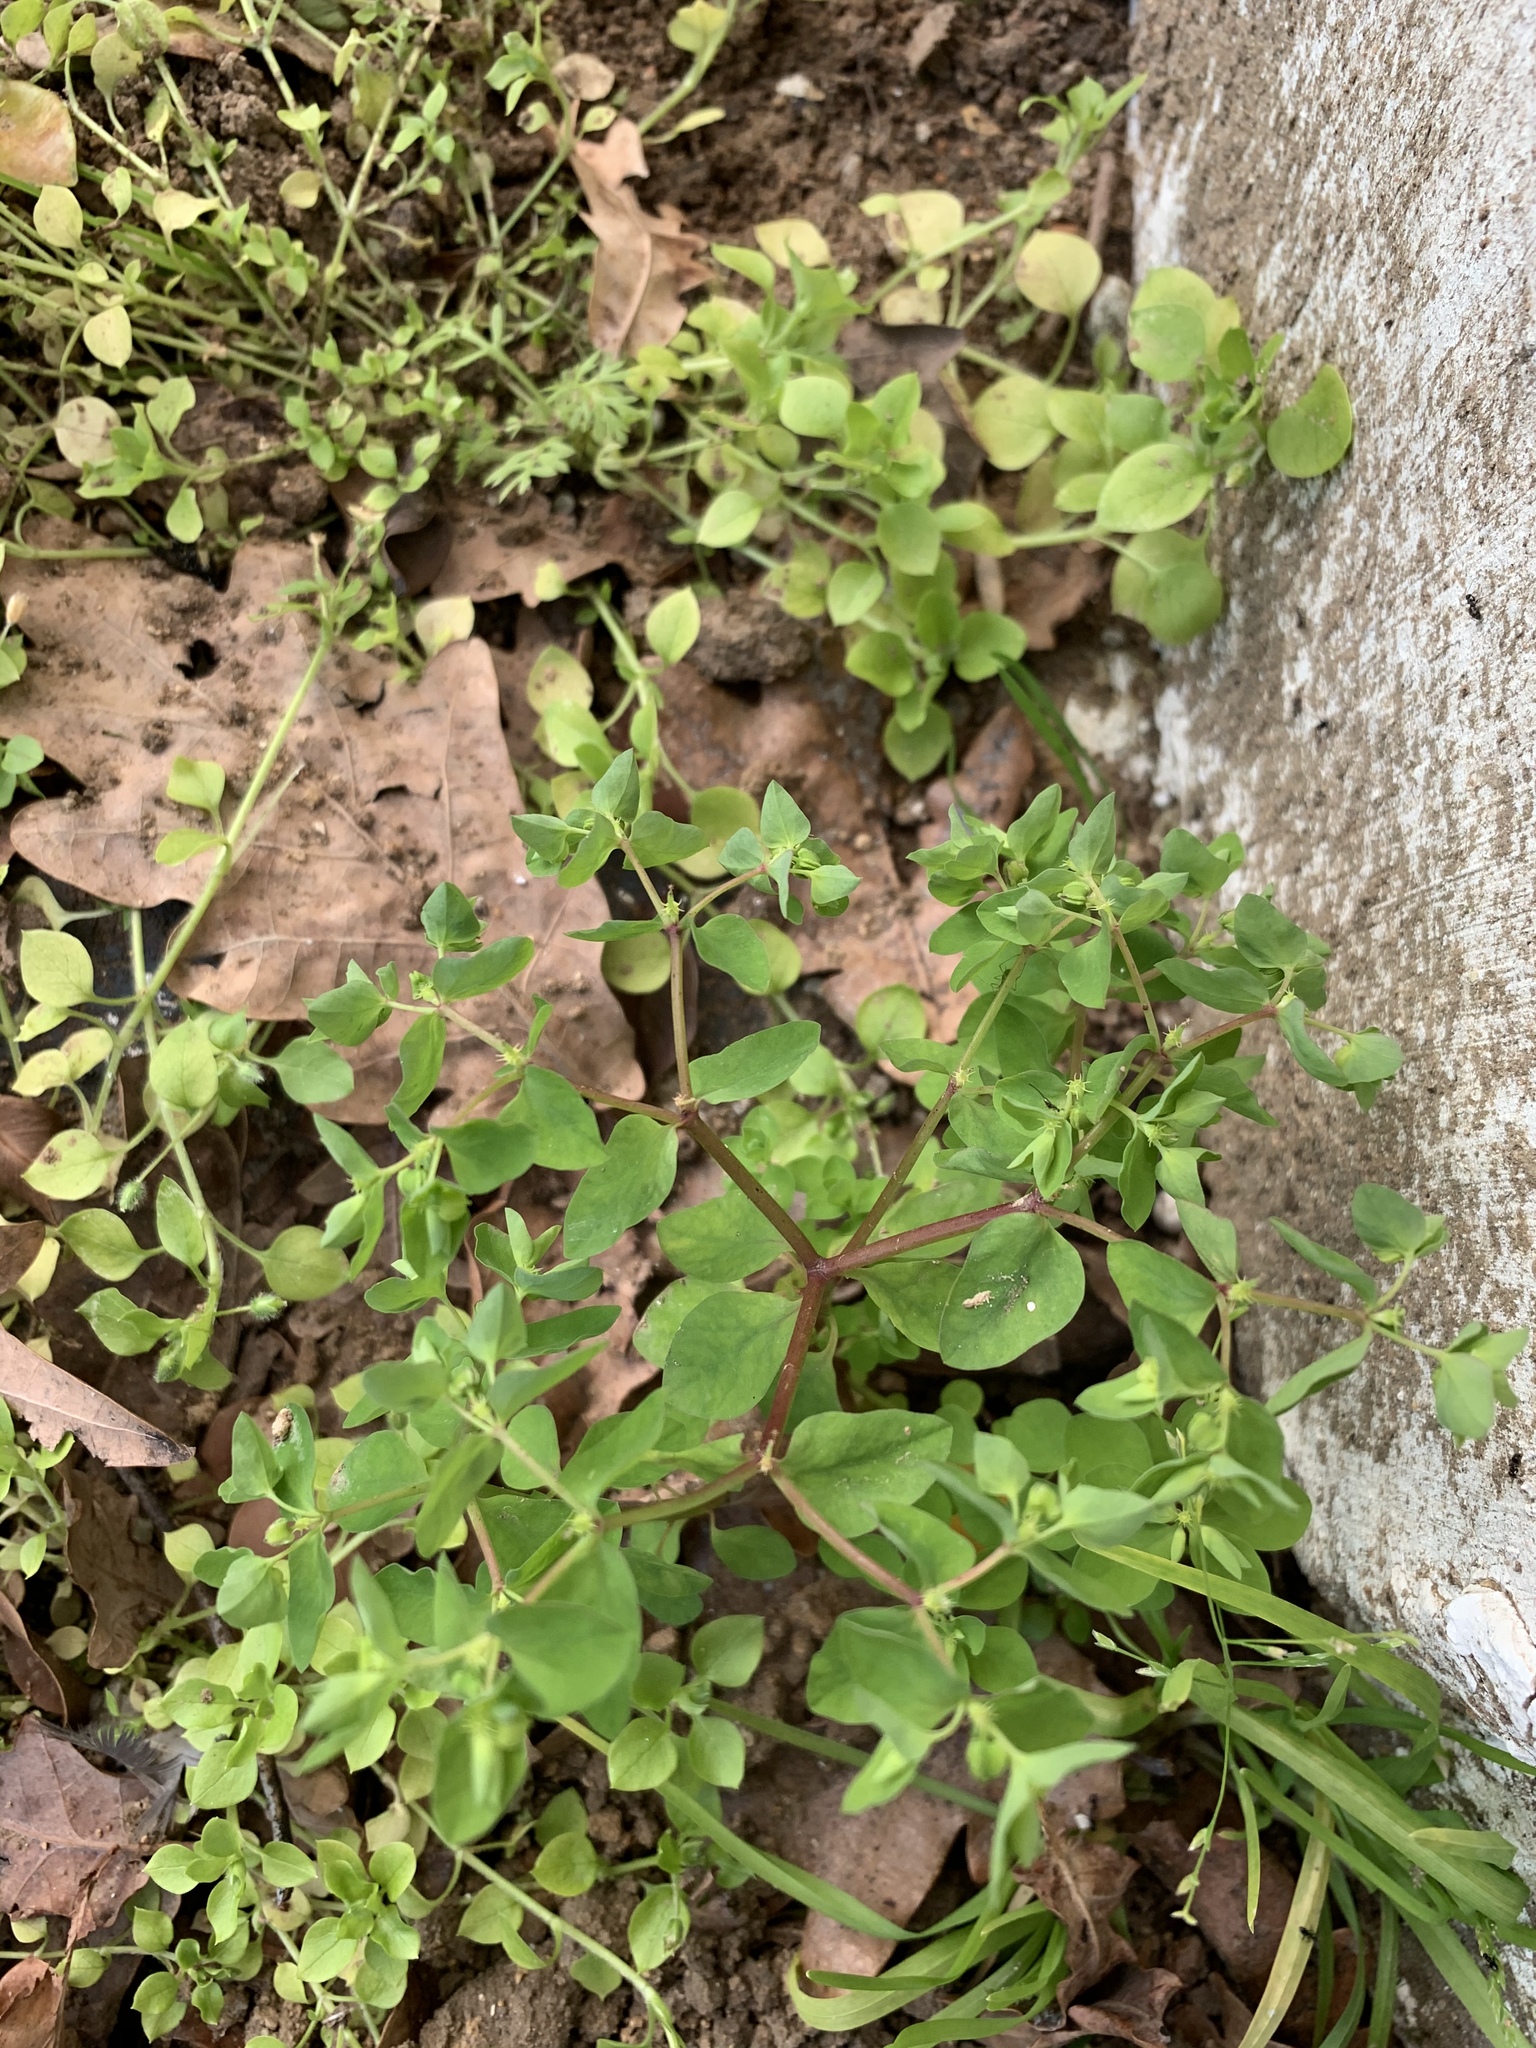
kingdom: Plantae
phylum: Tracheophyta
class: Magnoliopsida
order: Malpighiales
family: Euphorbiaceae
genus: Euphorbia
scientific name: Euphorbia peplus
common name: Petty spurge
